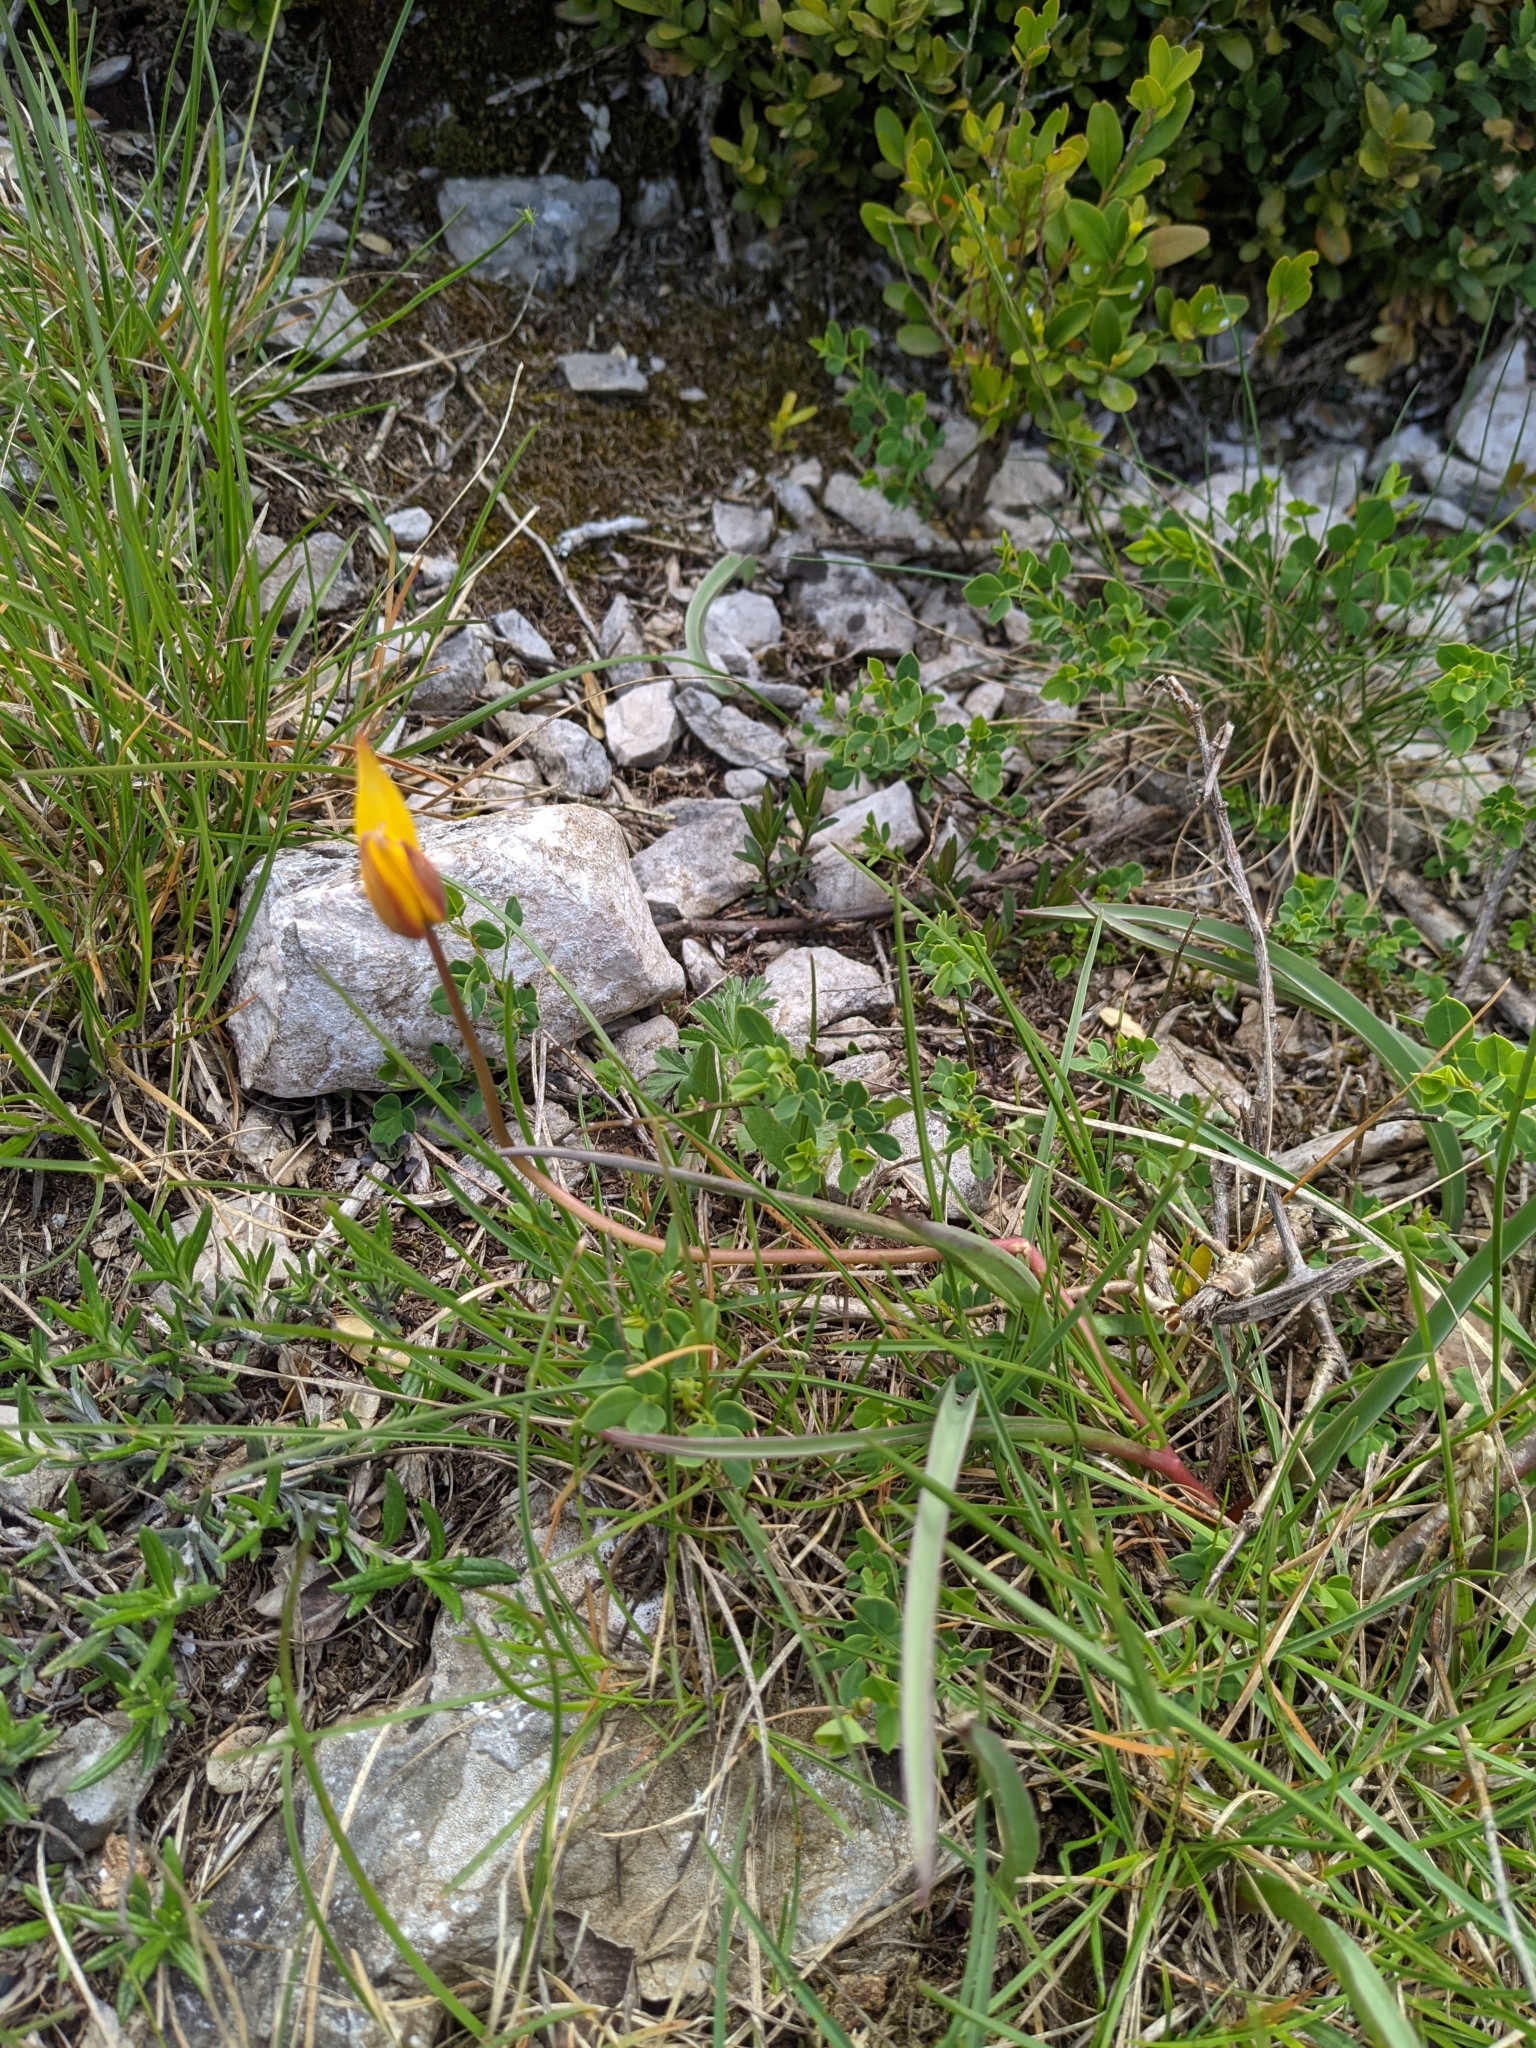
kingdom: Plantae
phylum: Tracheophyta
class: Liliopsida
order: Liliales
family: Liliaceae
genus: Tulipa
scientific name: Tulipa sylvestris
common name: Wild tulip
